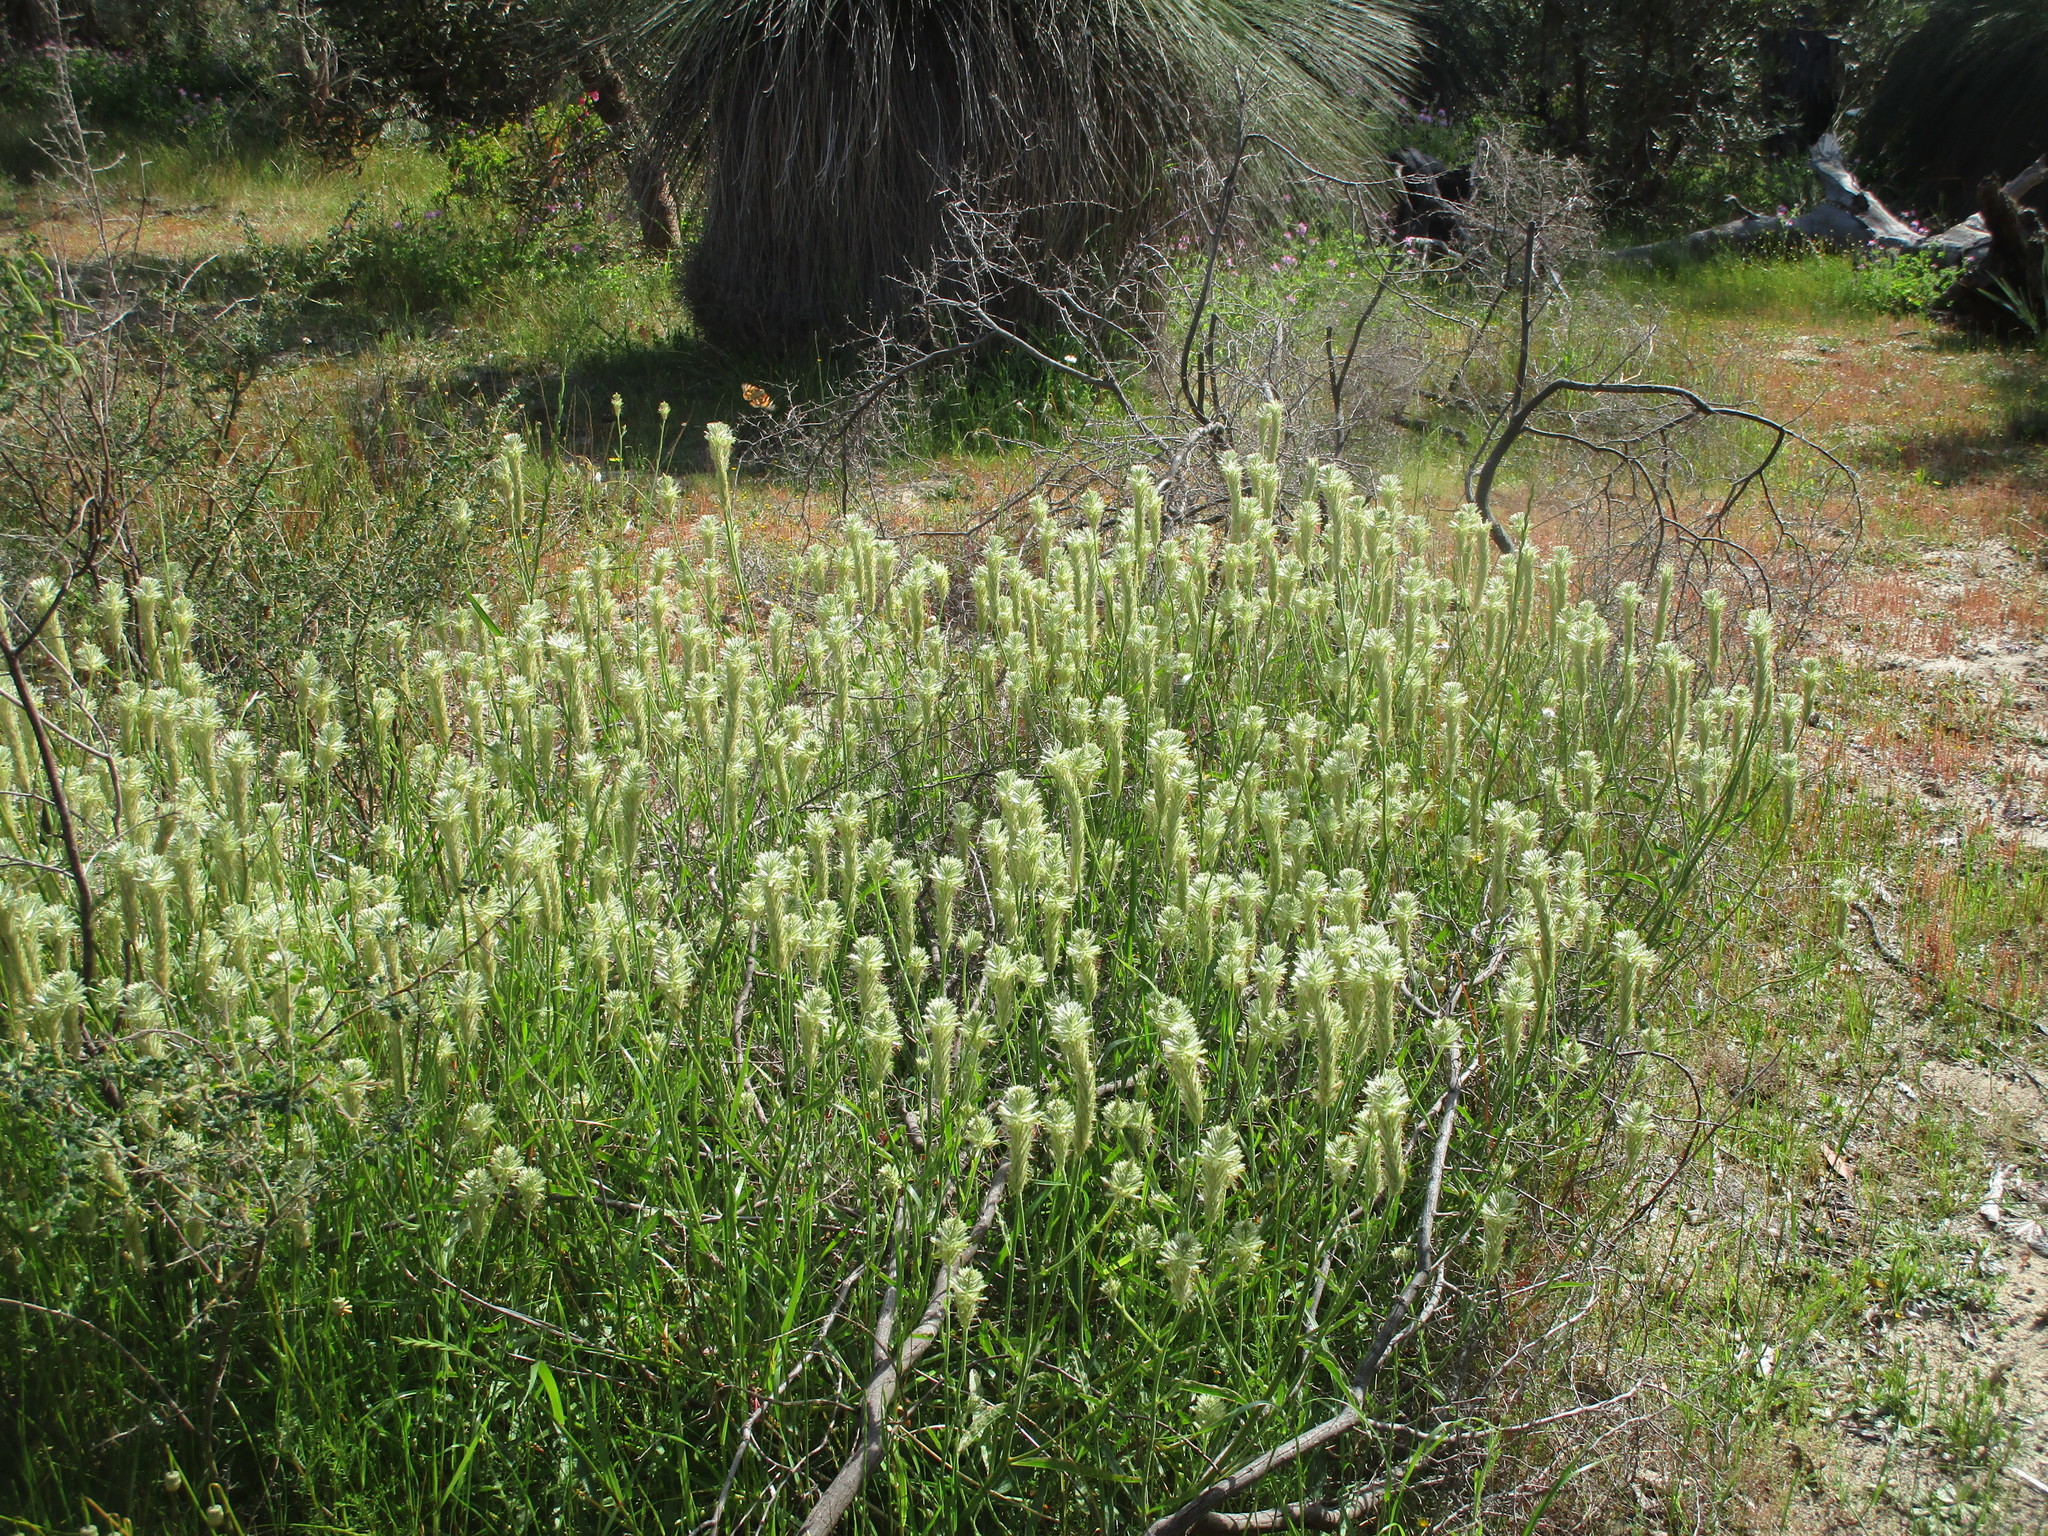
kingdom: Plantae
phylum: Tracheophyta
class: Magnoliopsida
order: Caryophyllales
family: Amaranthaceae
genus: Ptilotus
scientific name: Ptilotus polystachyus
